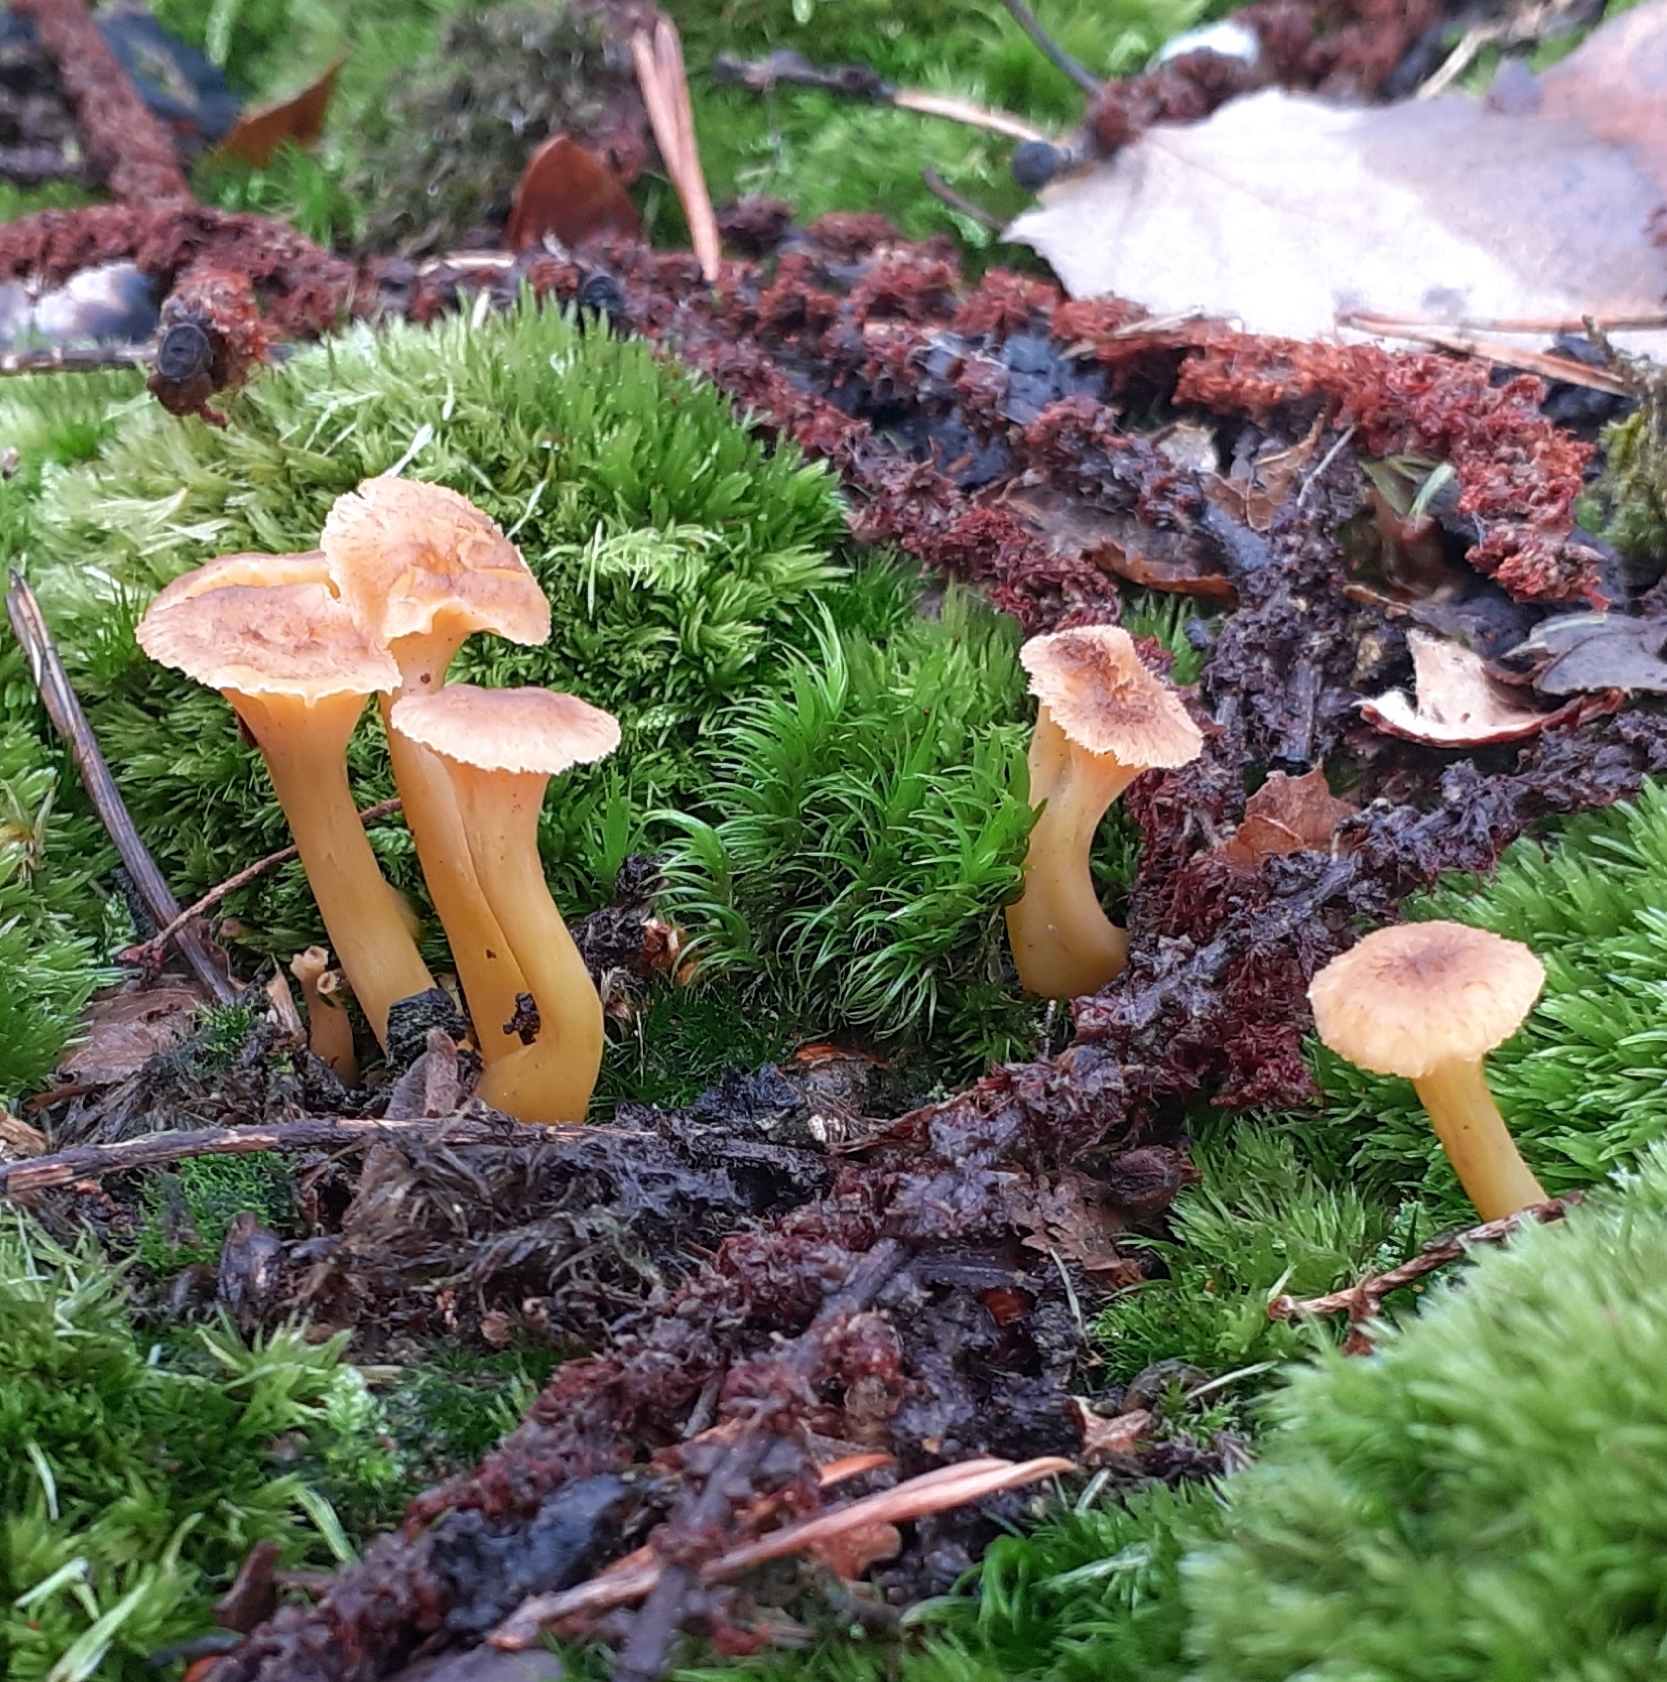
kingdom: Fungi
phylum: Basidiomycota
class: Agaricomycetes
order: Cantharellales
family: Hydnaceae
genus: Craterellus
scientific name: Craterellus tubaeformis
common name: Yellowfoot
